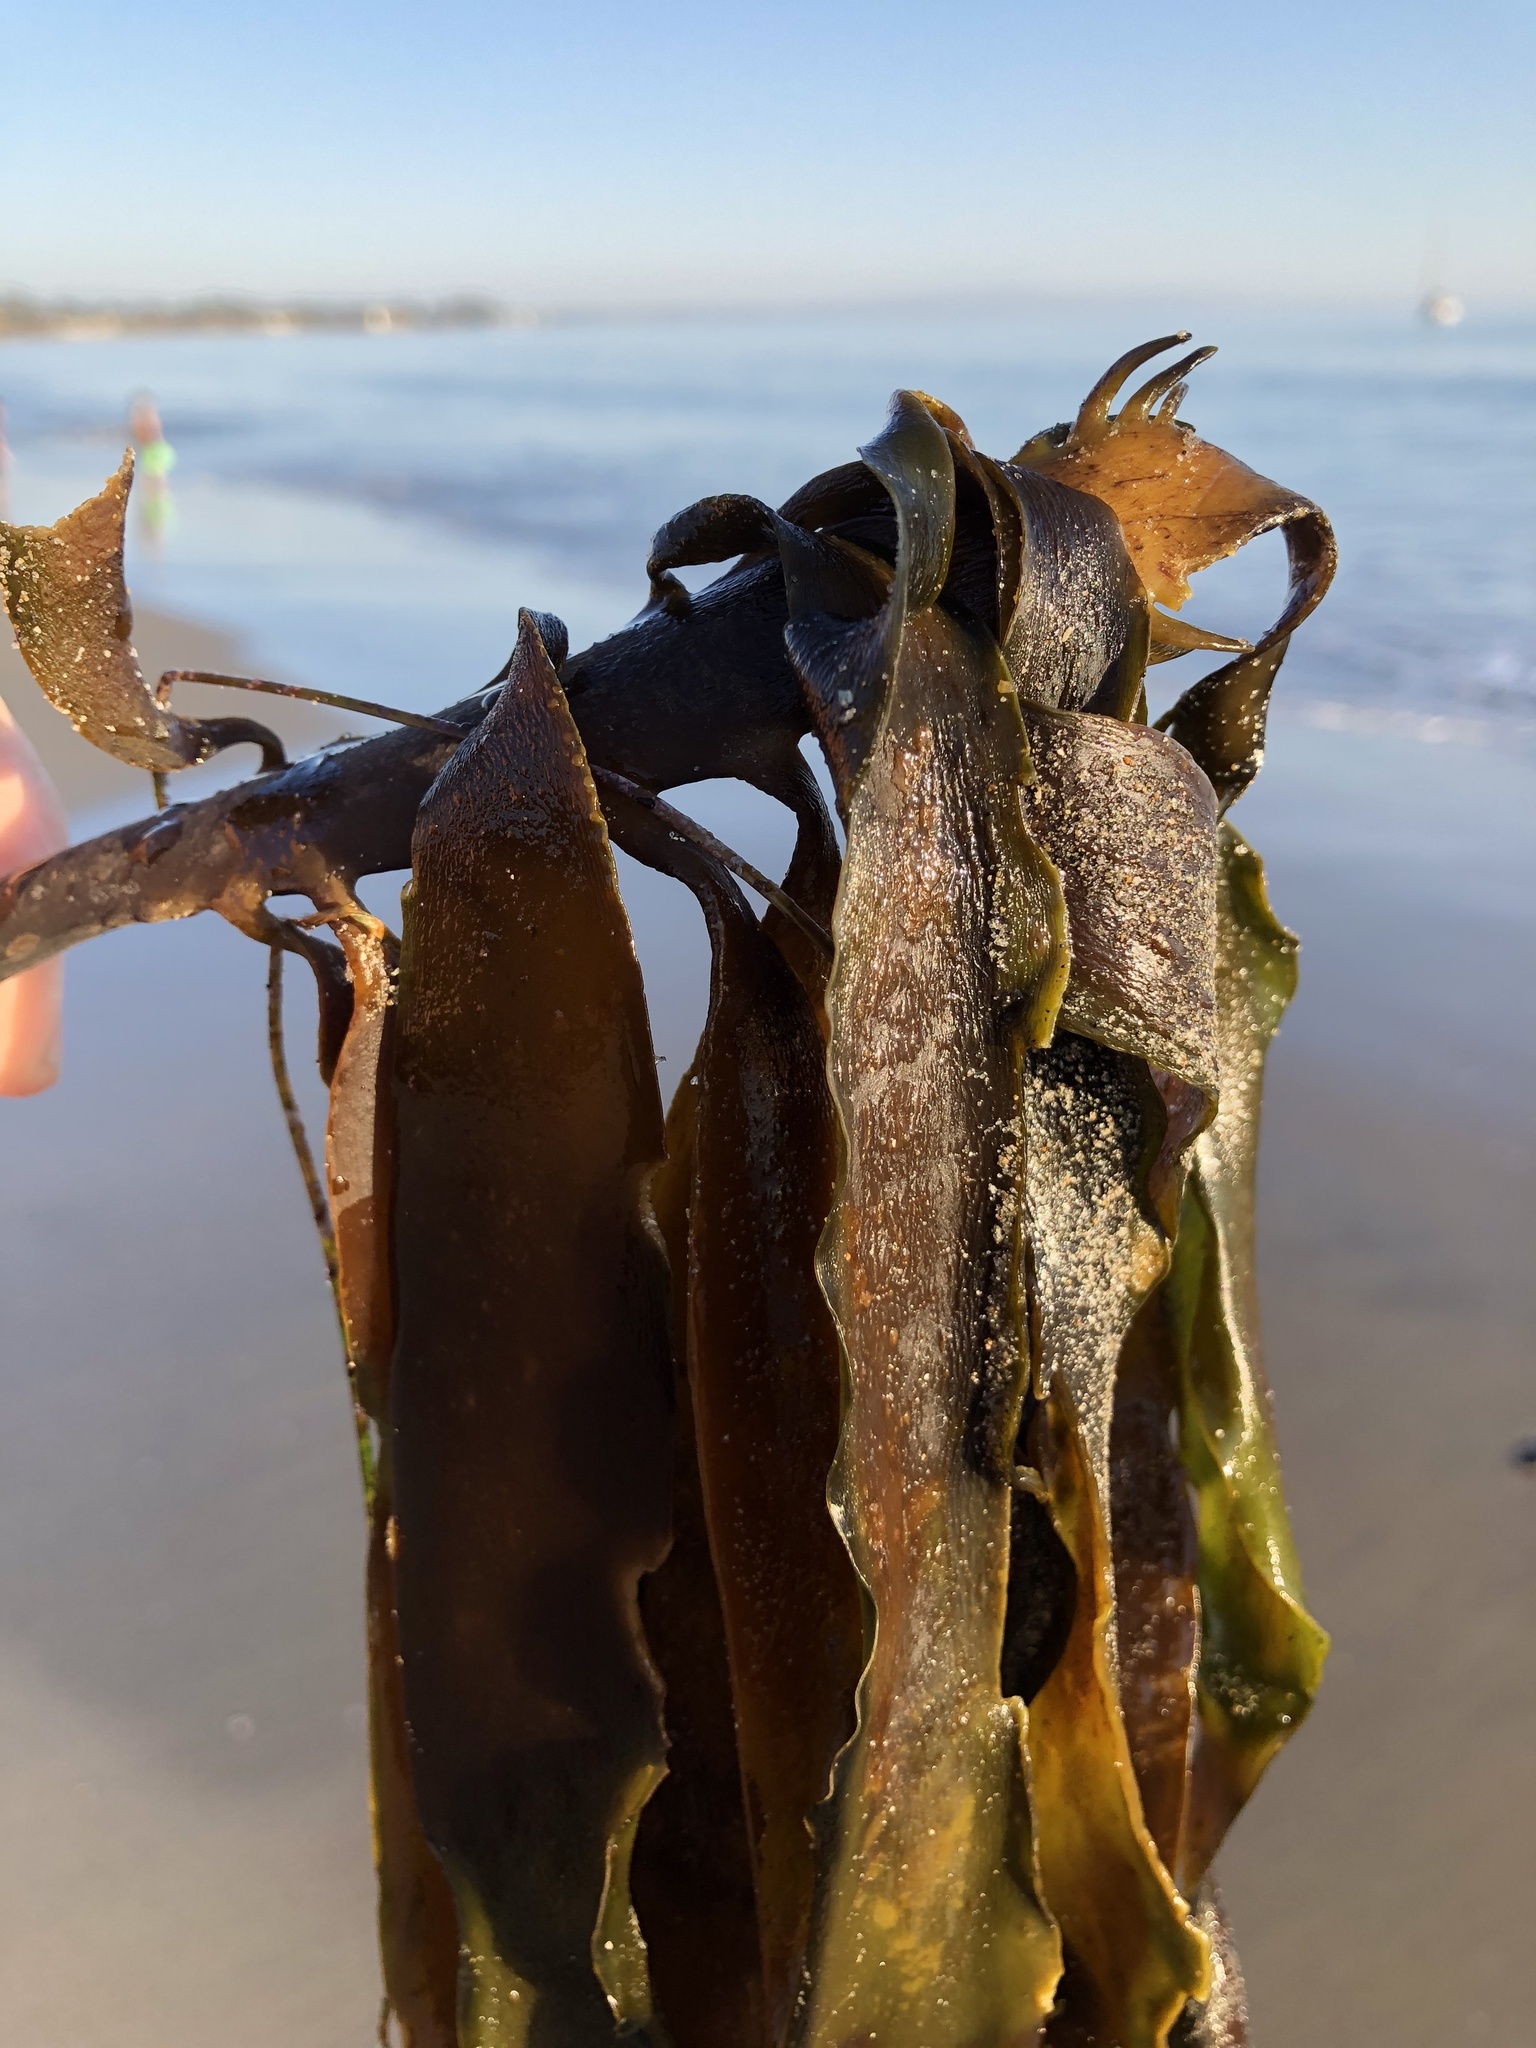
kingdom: Chromista
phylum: Ochrophyta
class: Phaeophyceae
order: Laminariales
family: Alariaceae
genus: Pterygophora
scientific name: Pterygophora californica
